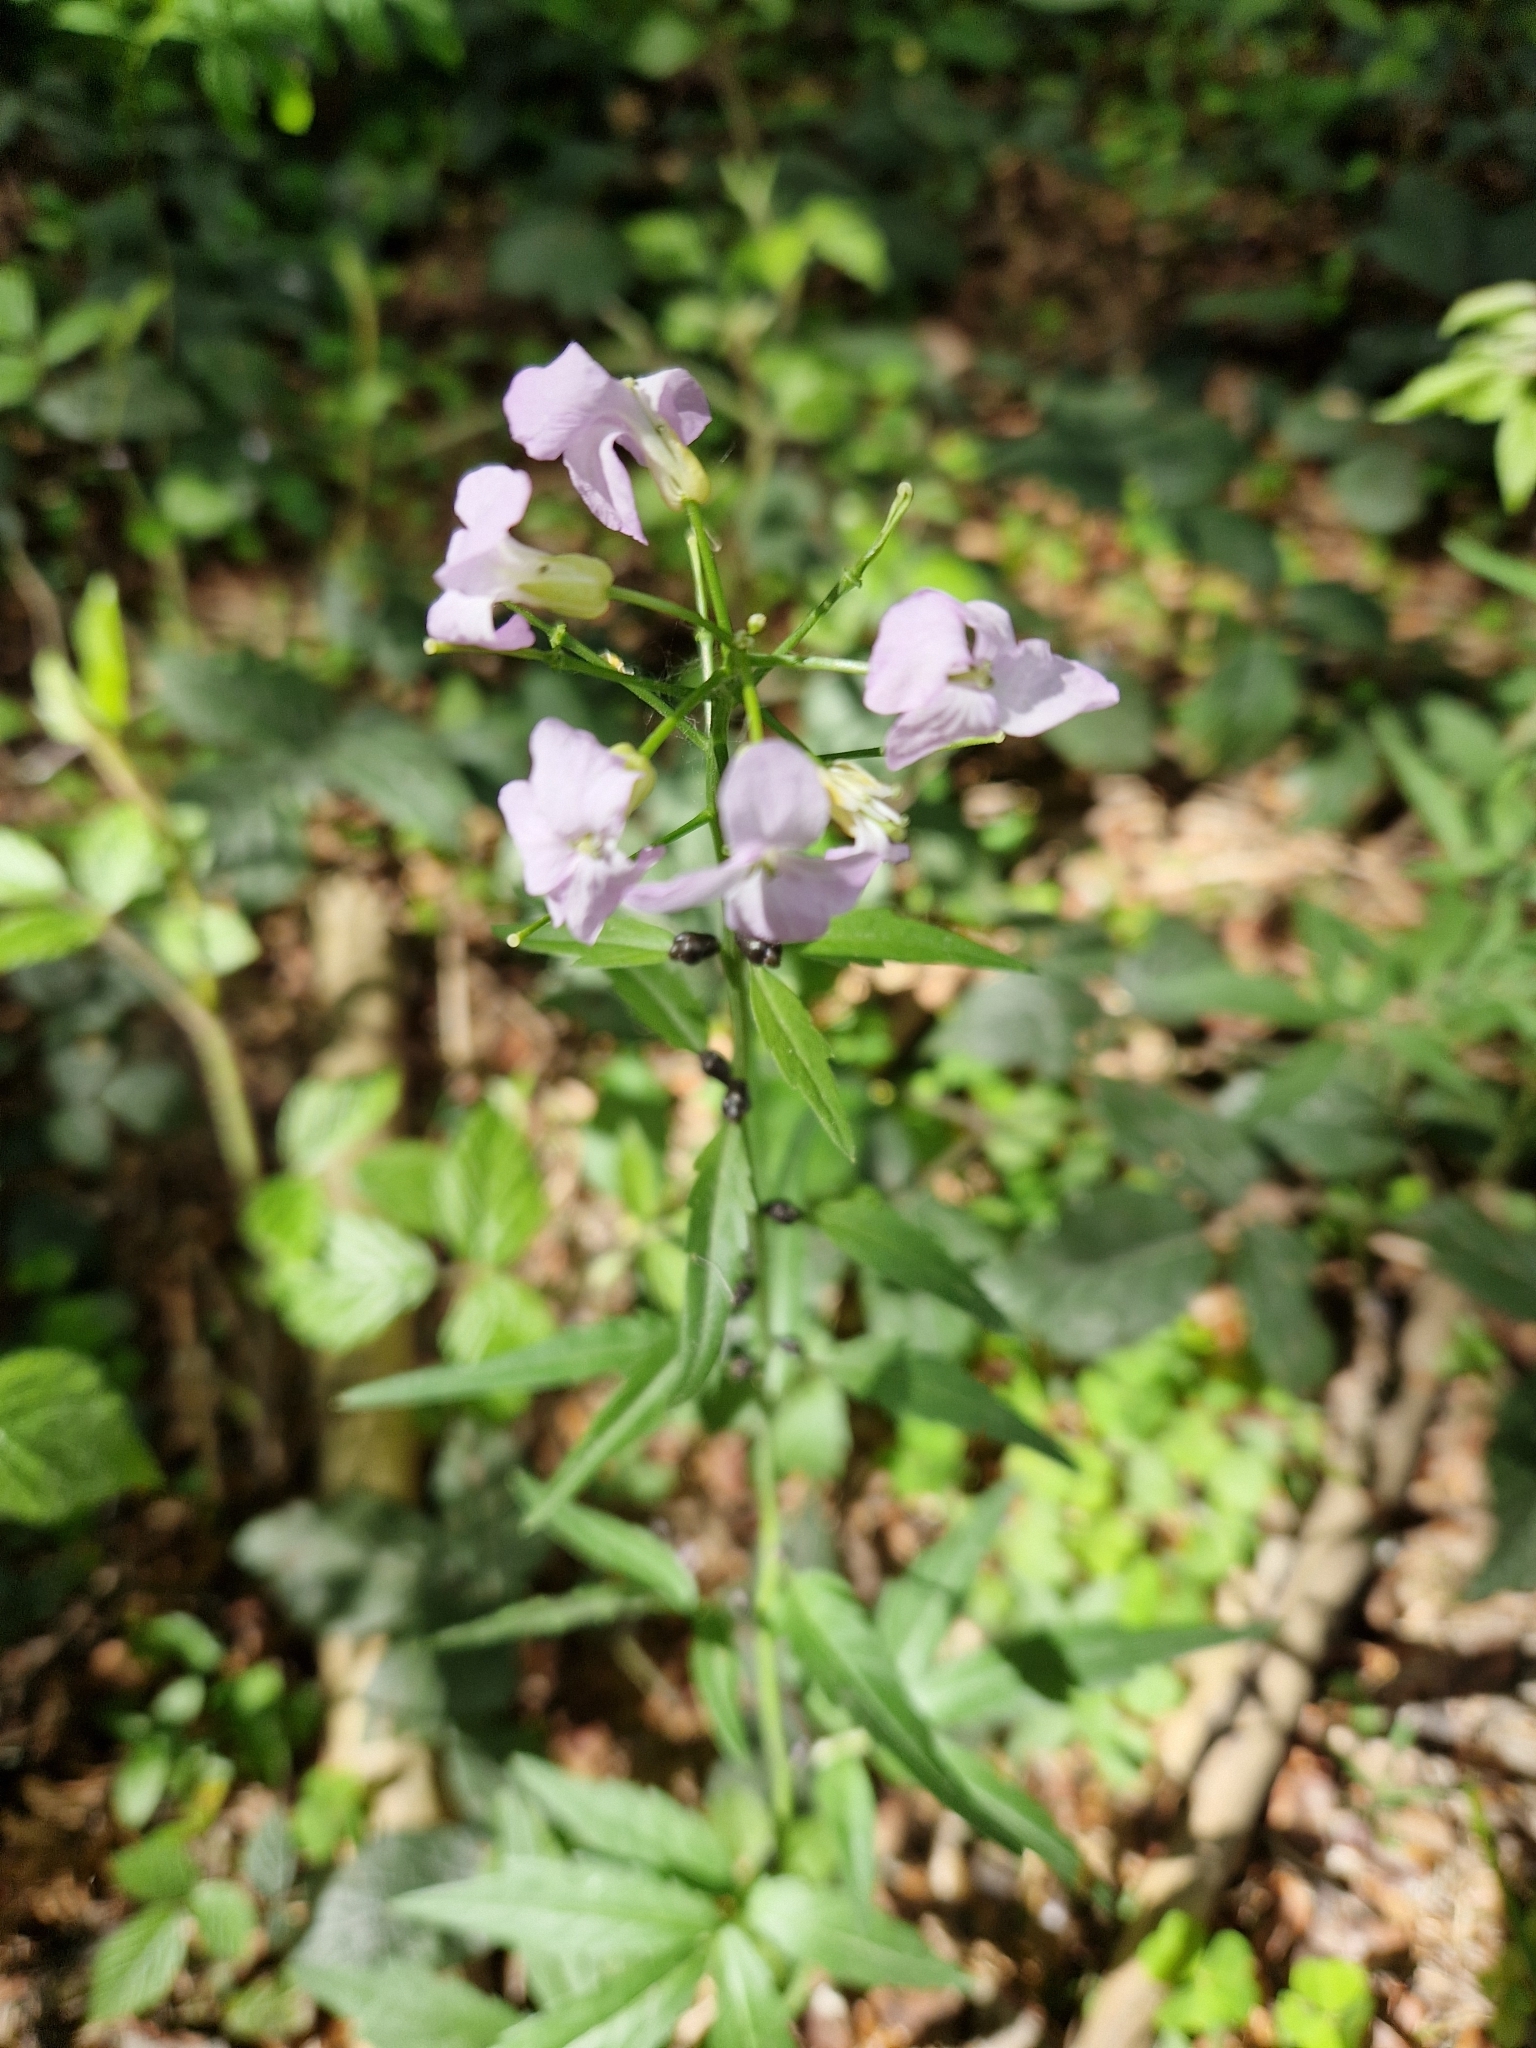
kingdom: Plantae
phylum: Tracheophyta
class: Magnoliopsida
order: Brassicales
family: Brassicaceae
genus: Cardamine
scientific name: Cardamine bulbifera
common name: Coralroot bittercress
